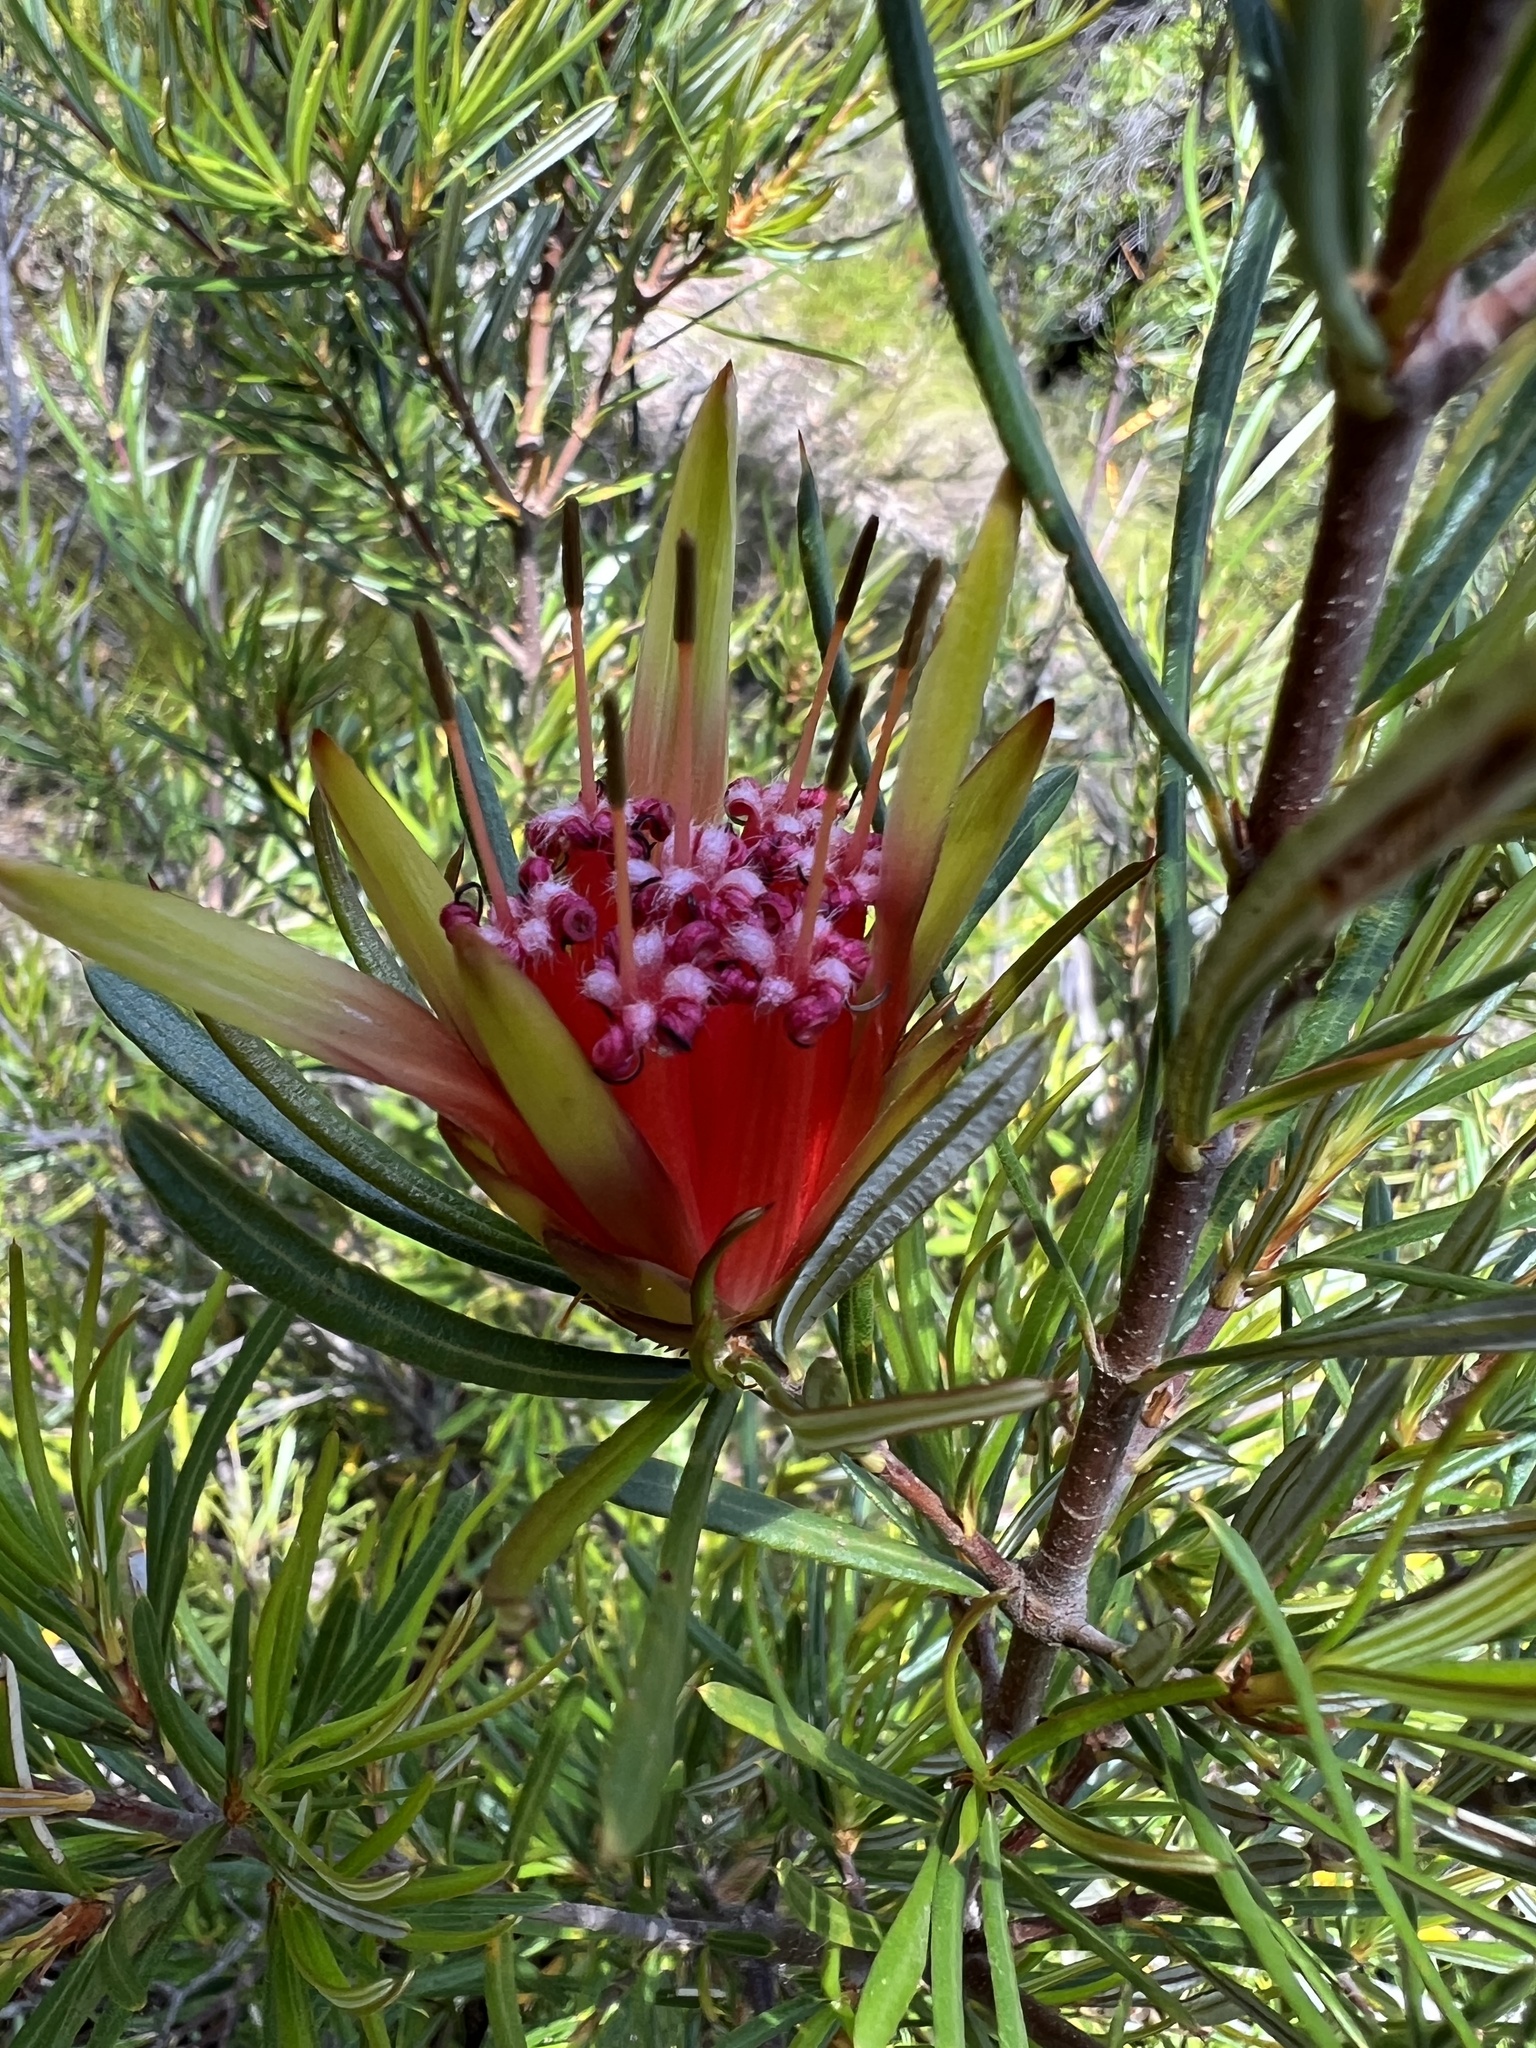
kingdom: Plantae
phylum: Tracheophyta
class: Magnoliopsida
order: Proteales
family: Proteaceae
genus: Lambertia
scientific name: Lambertia formosa
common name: Mountain-devil
